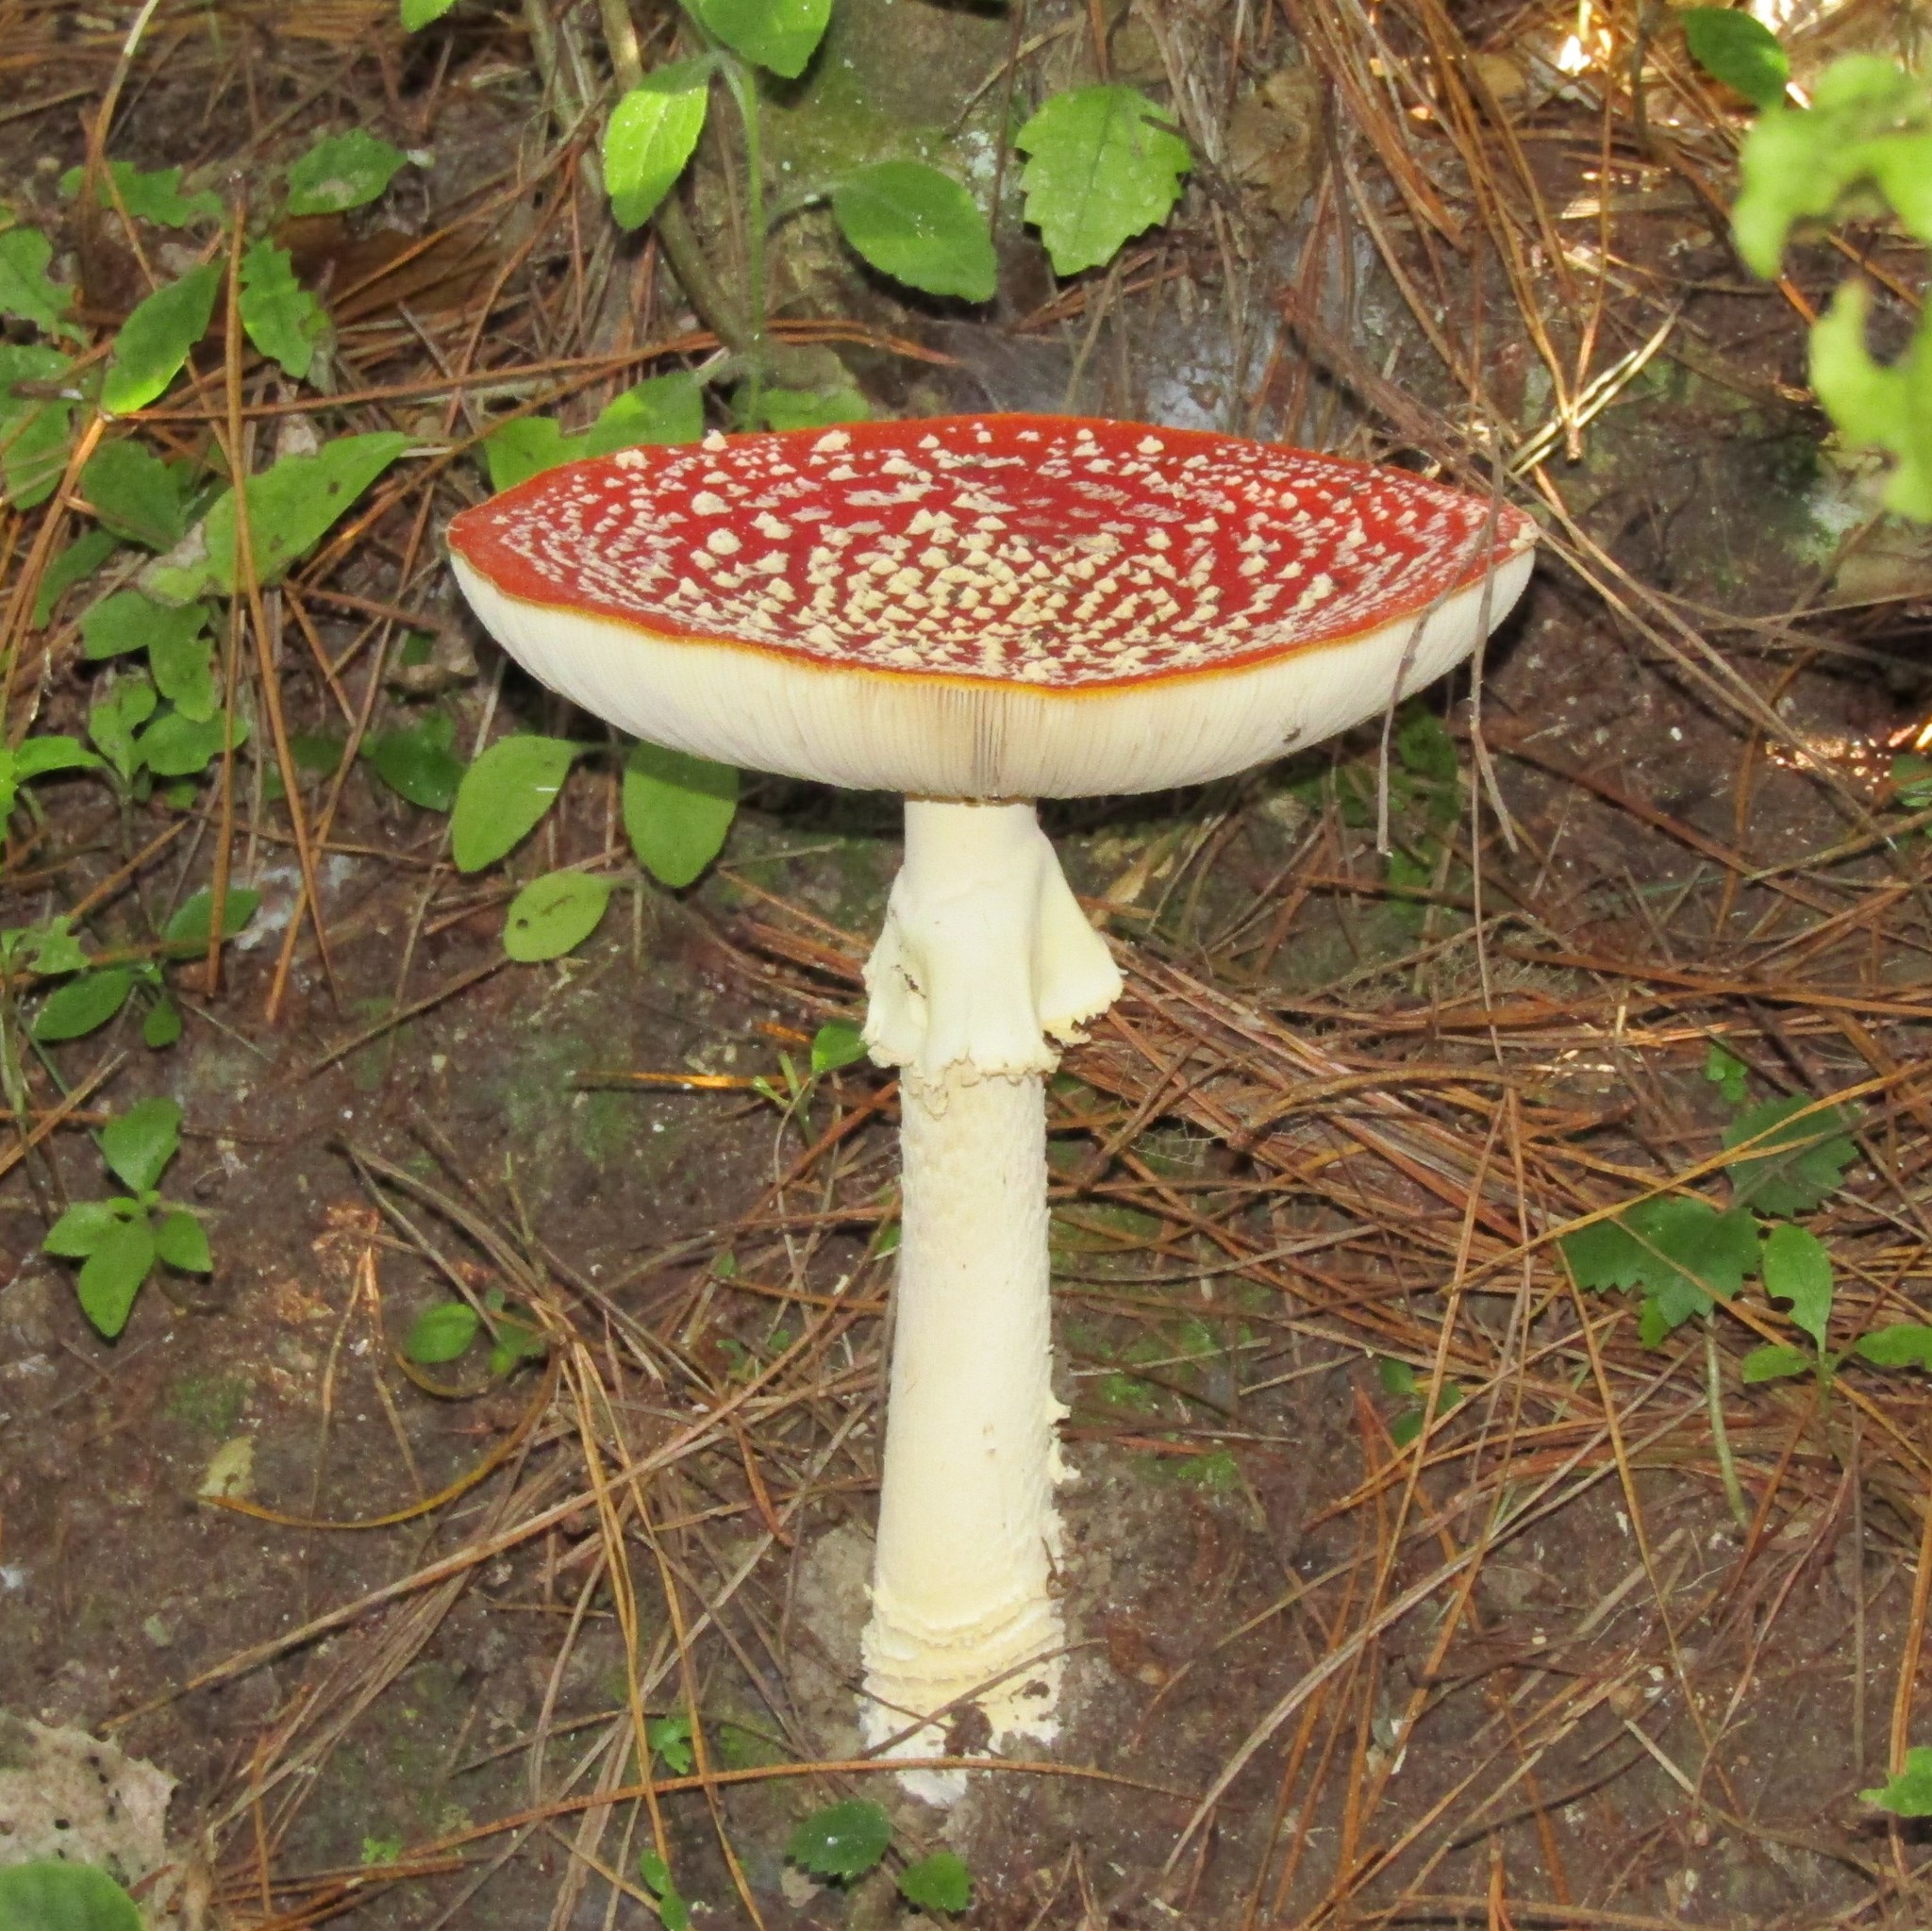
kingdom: Fungi
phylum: Basidiomycota
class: Agaricomycetes
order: Agaricales
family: Amanitaceae
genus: Amanita
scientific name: Amanita muscaria
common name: Fly agaric
